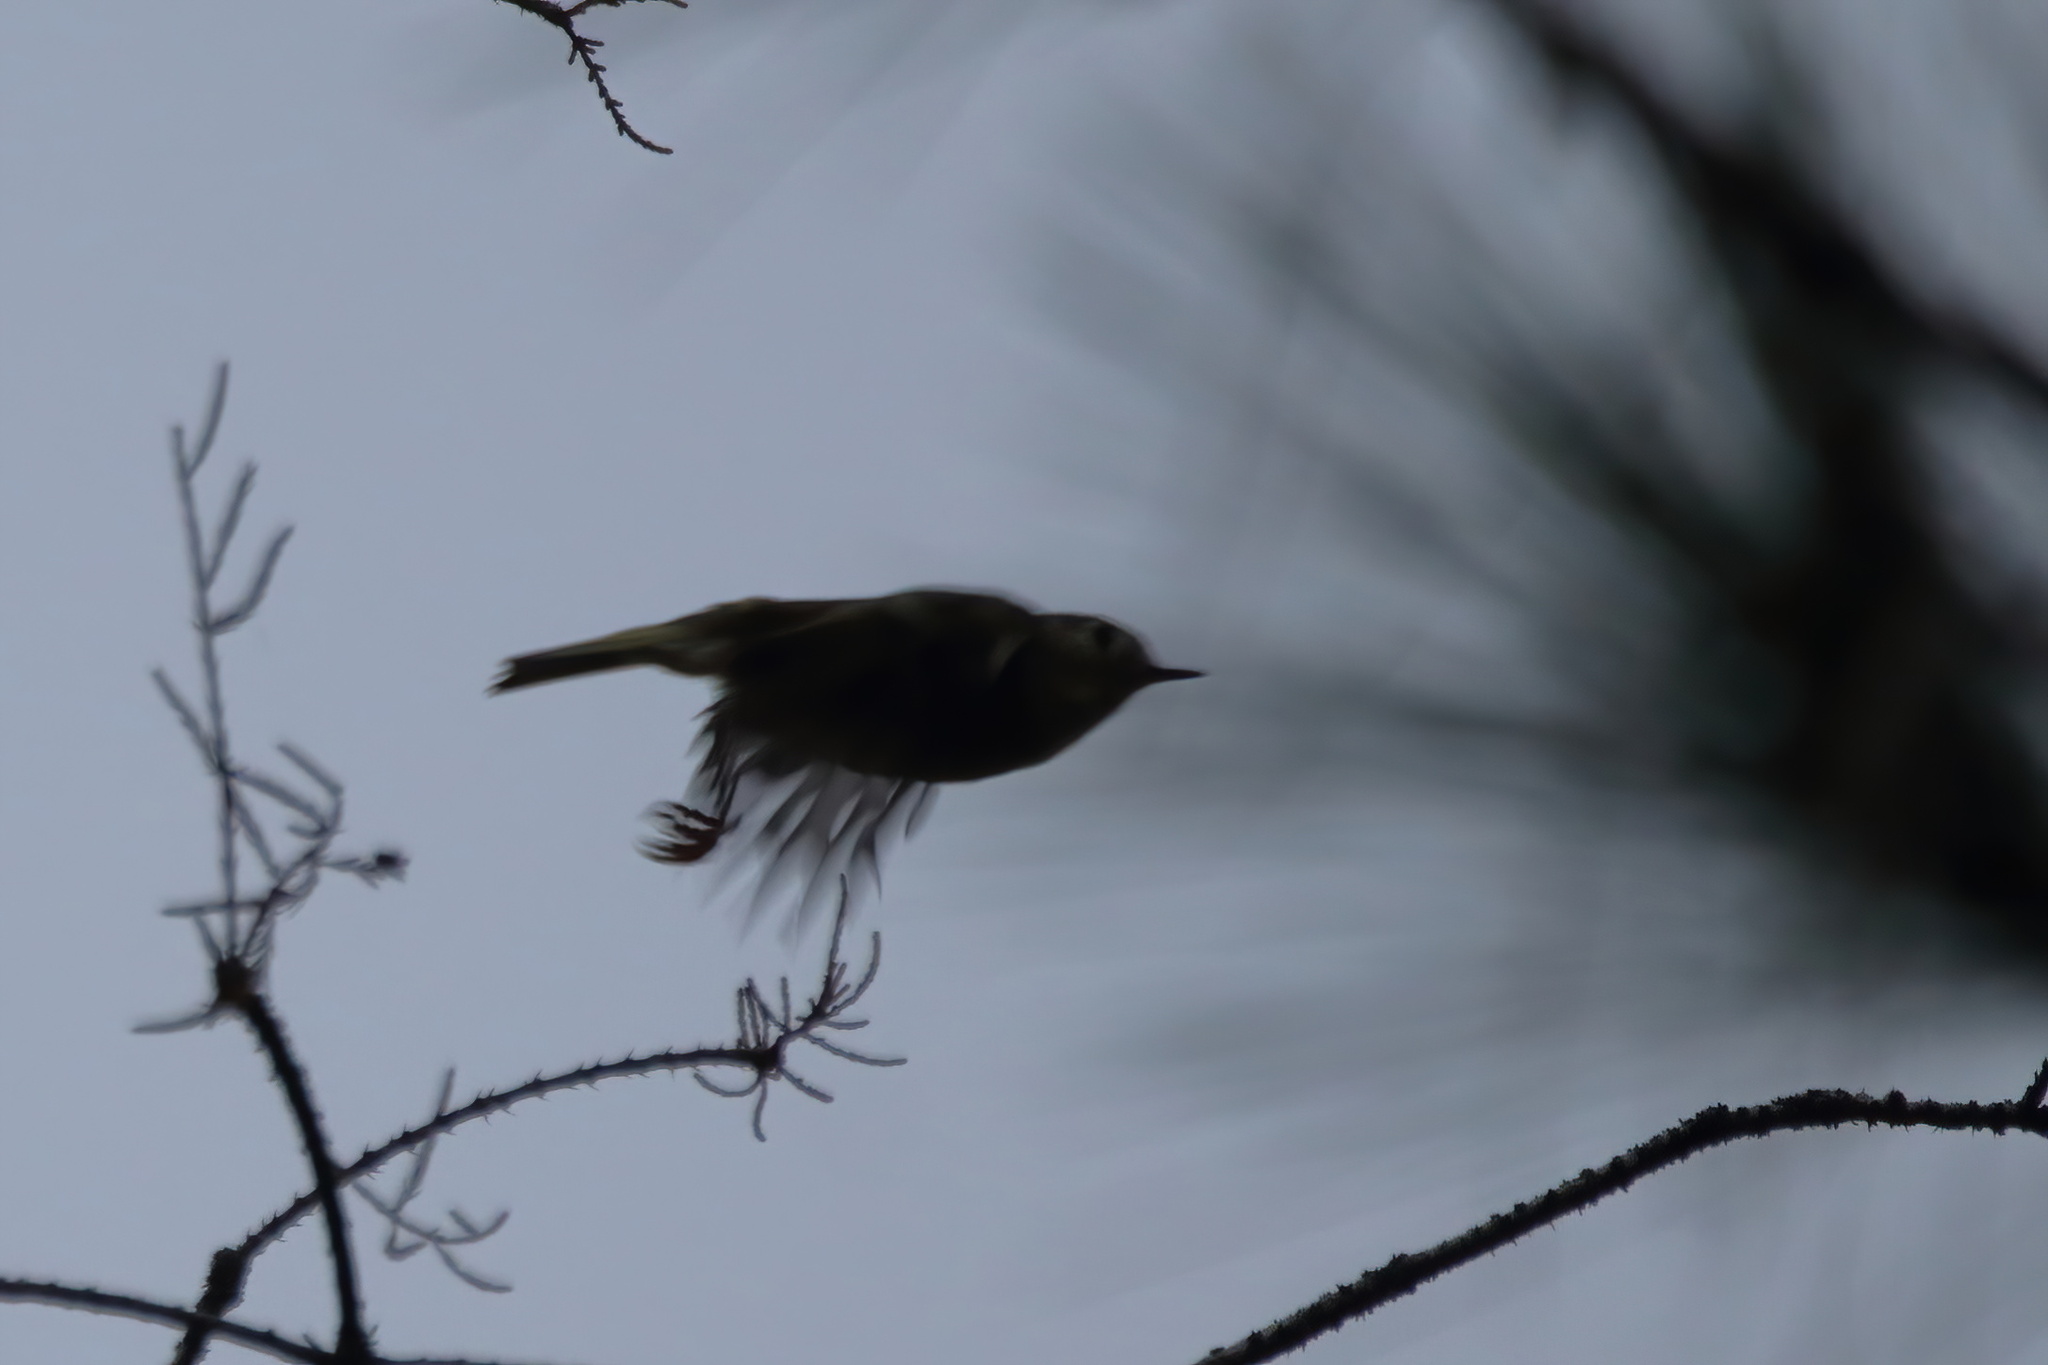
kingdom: Animalia
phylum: Chordata
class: Aves
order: Passeriformes
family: Regulidae
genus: Regulus
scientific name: Regulus calendula
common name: Ruby-crowned kinglet
